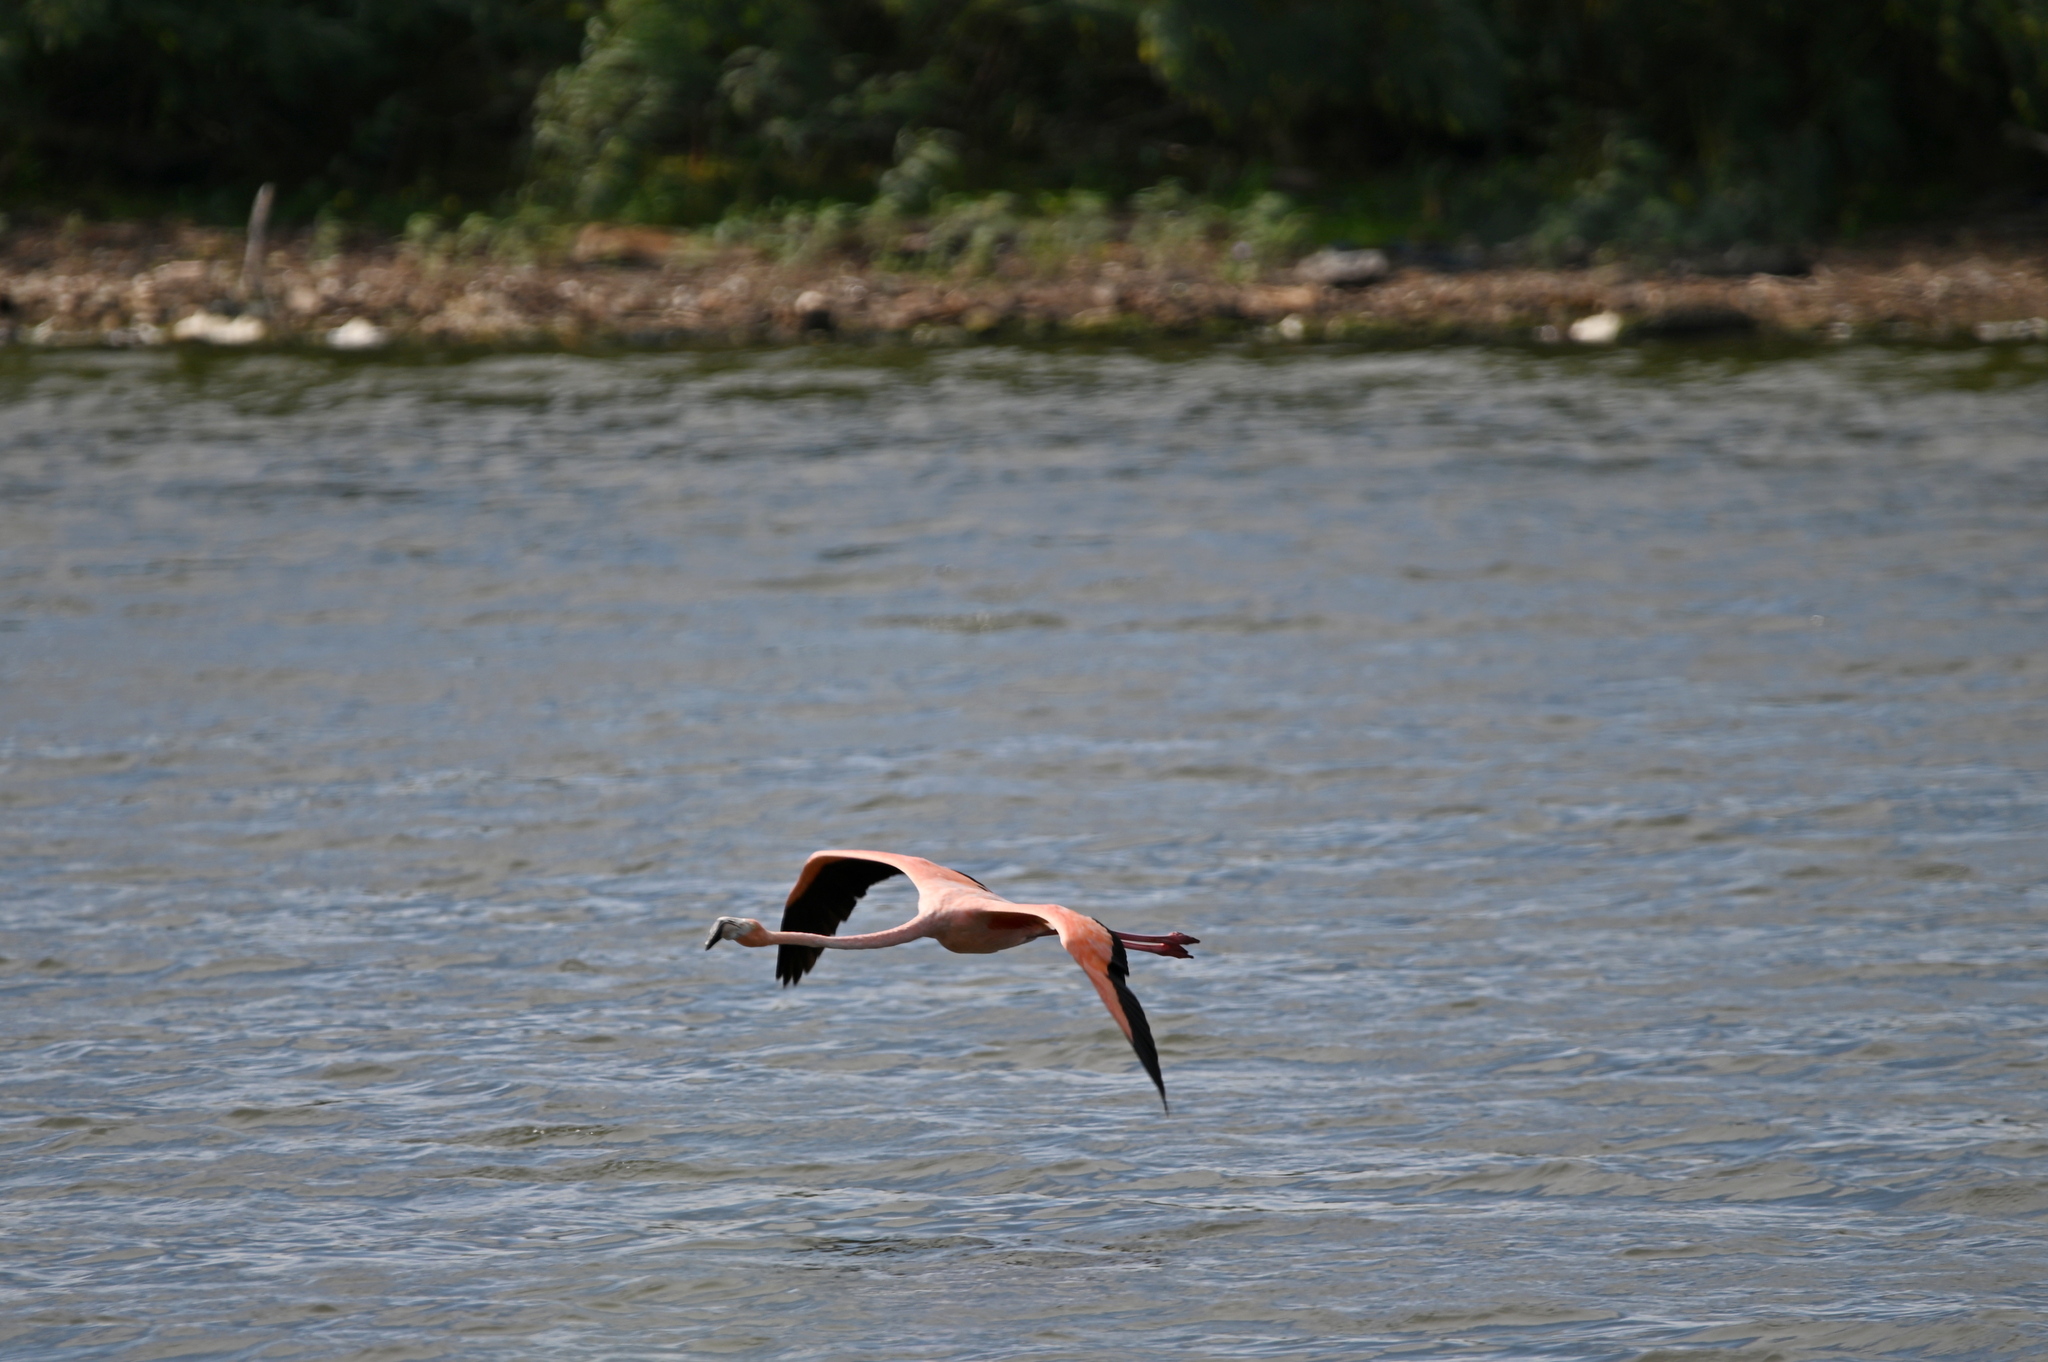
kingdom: Animalia
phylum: Chordata
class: Aves
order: Phoenicopteriformes
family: Phoenicopteridae
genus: Phoenicopterus
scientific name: Phoenicopterus ruber
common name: American flamingo
